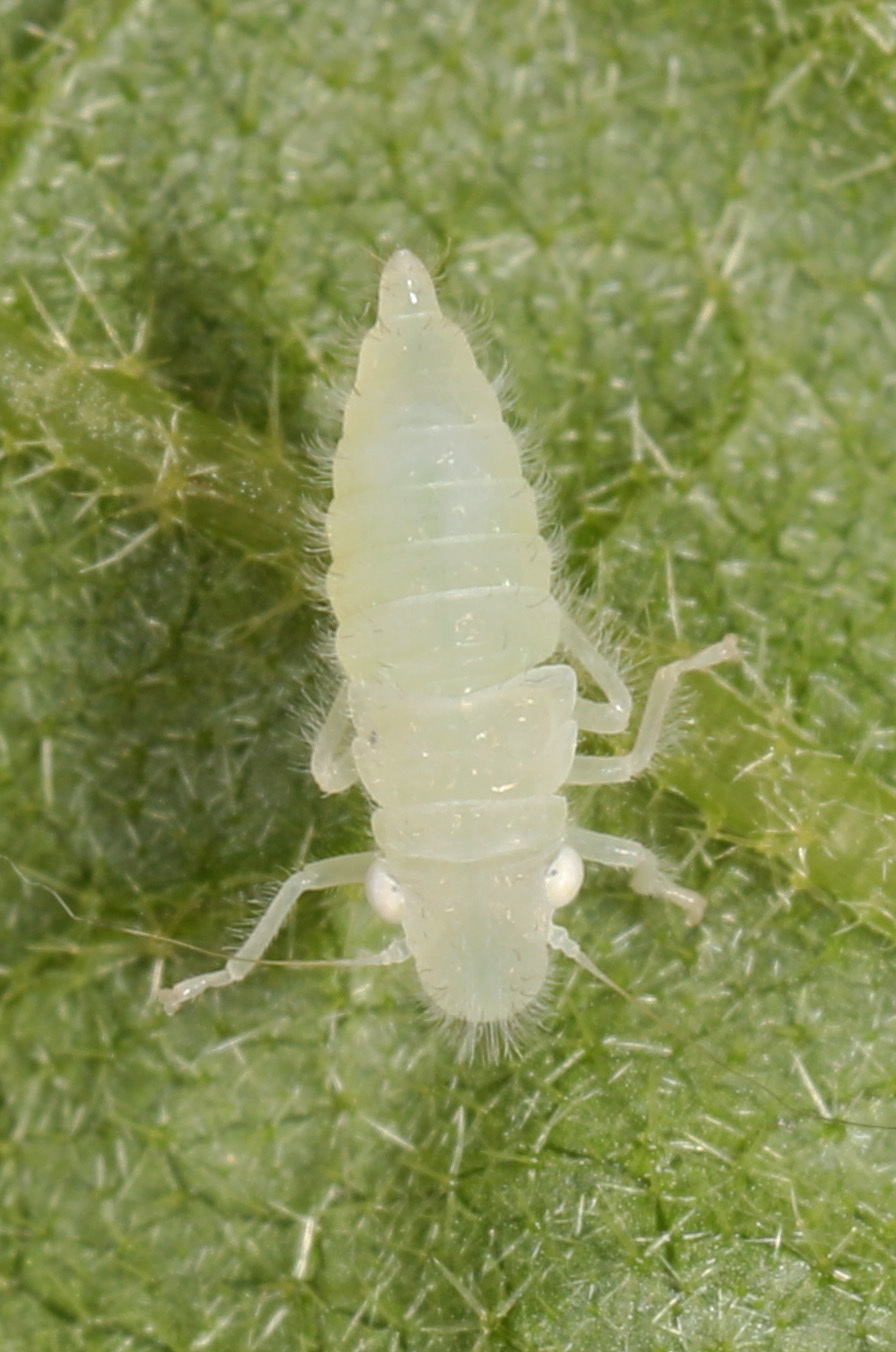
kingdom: Animalia
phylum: Arthropoda
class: Insecta
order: Hemiptera
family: Cicadellidae
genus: Paraulacizes
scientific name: Paraulacizes irrorata
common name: Speckled sharpshooter
